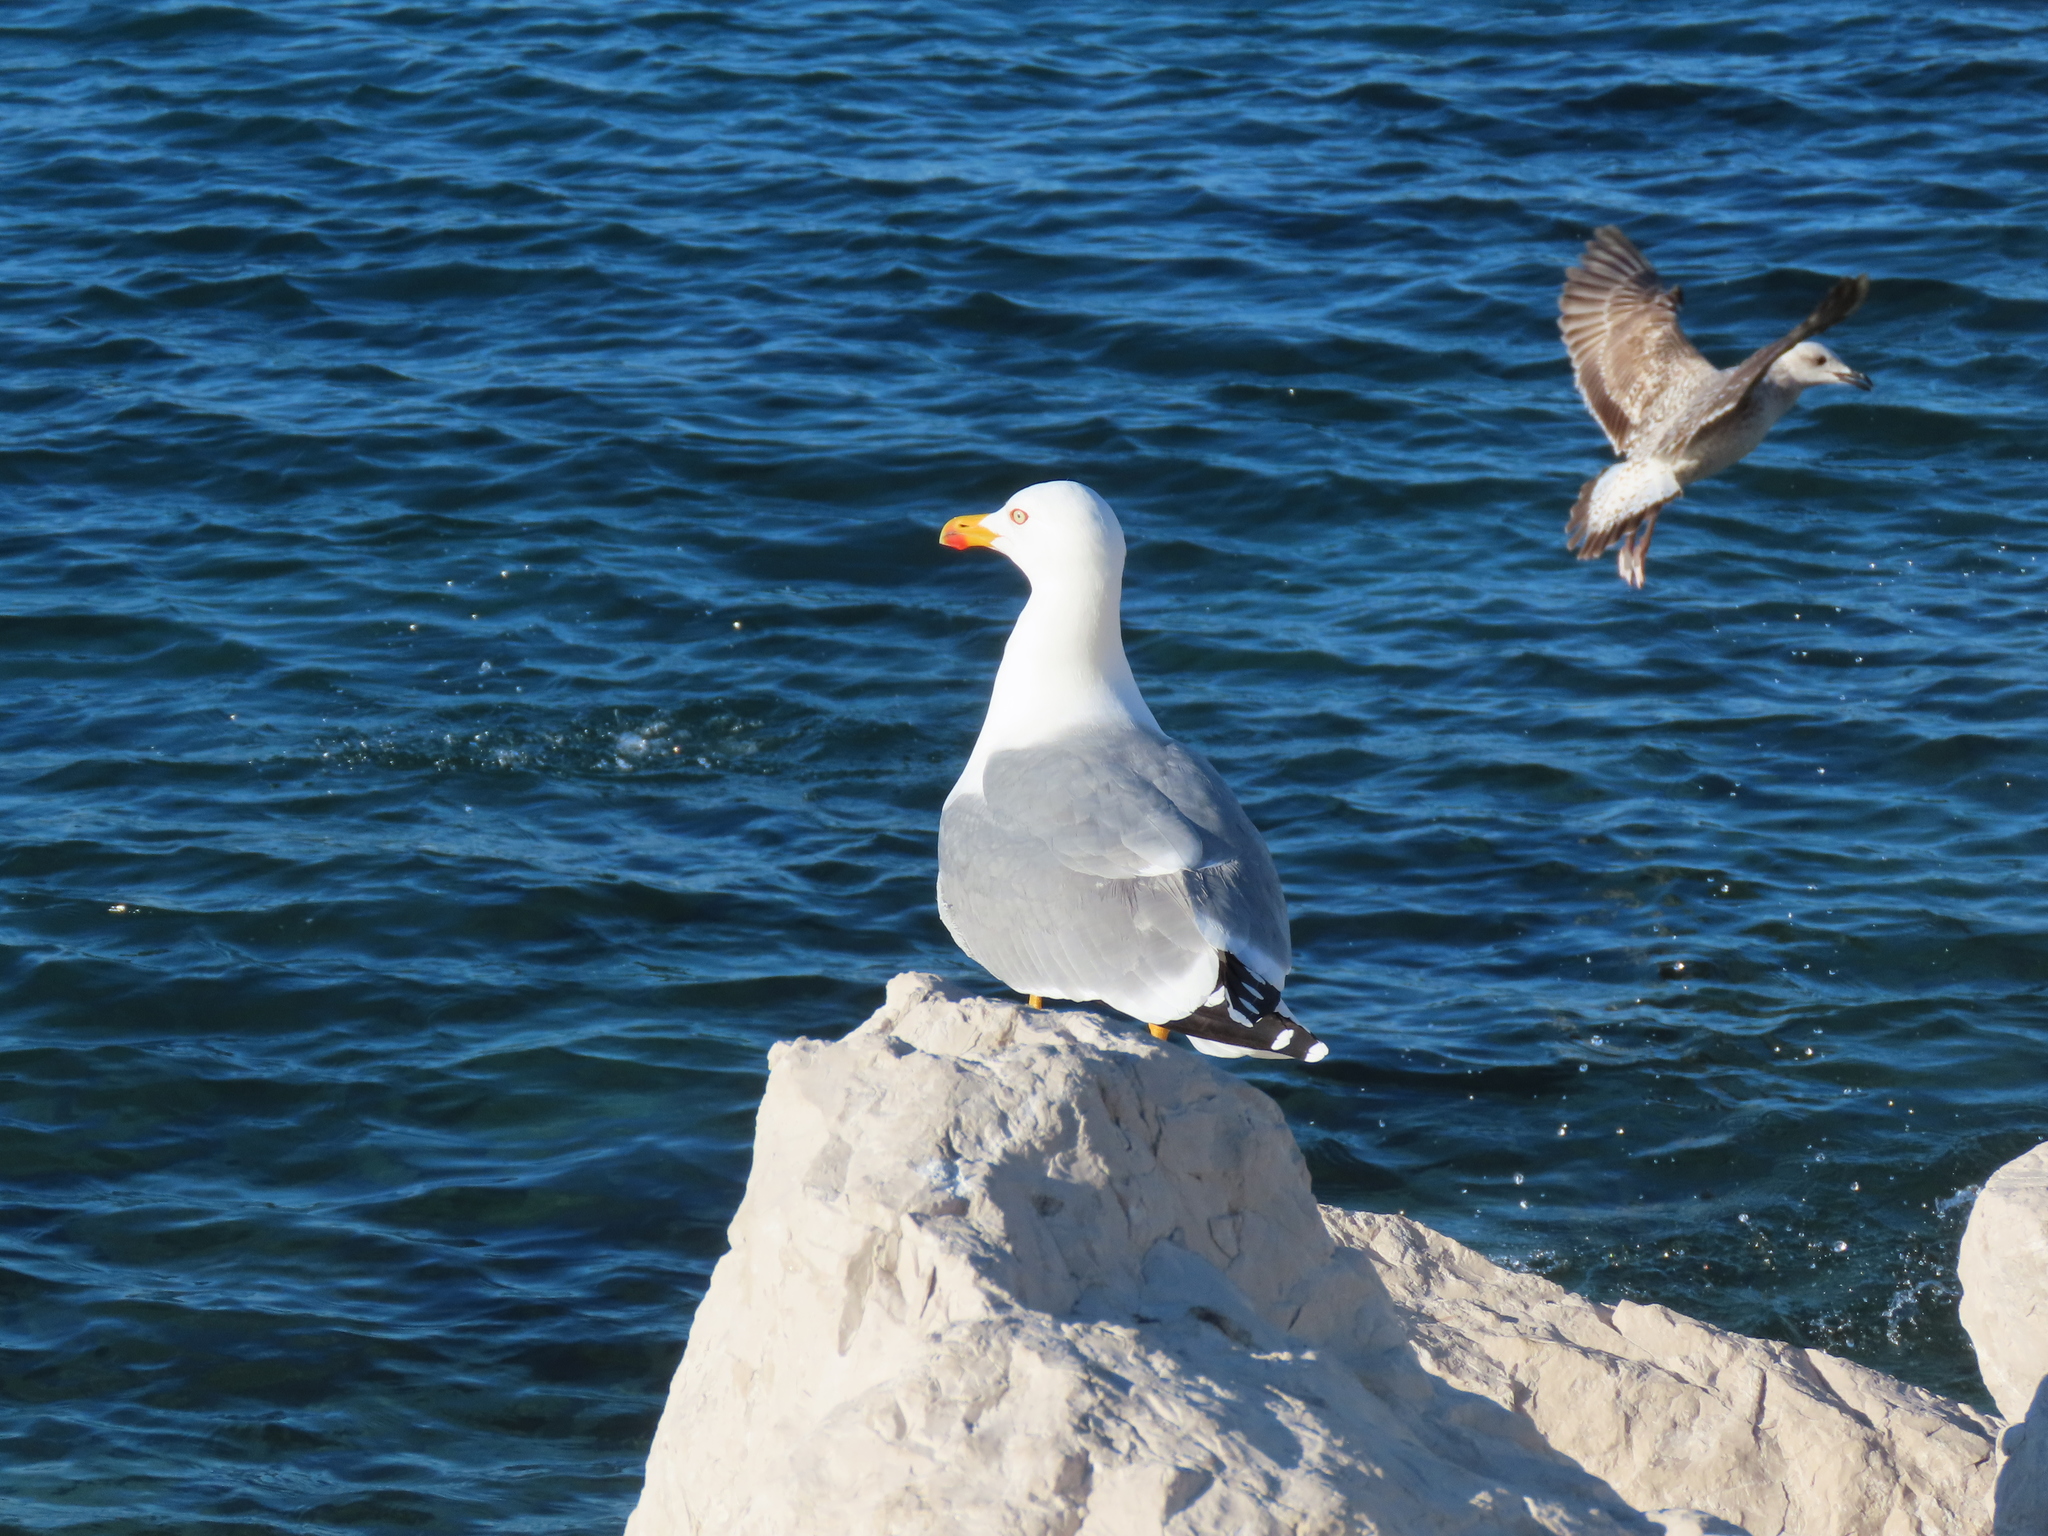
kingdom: Animalia
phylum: Chordata
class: Aves
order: Charadriiformes
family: Laridae
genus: Larus
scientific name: Larus michahellis
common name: Yellow-legged gull
